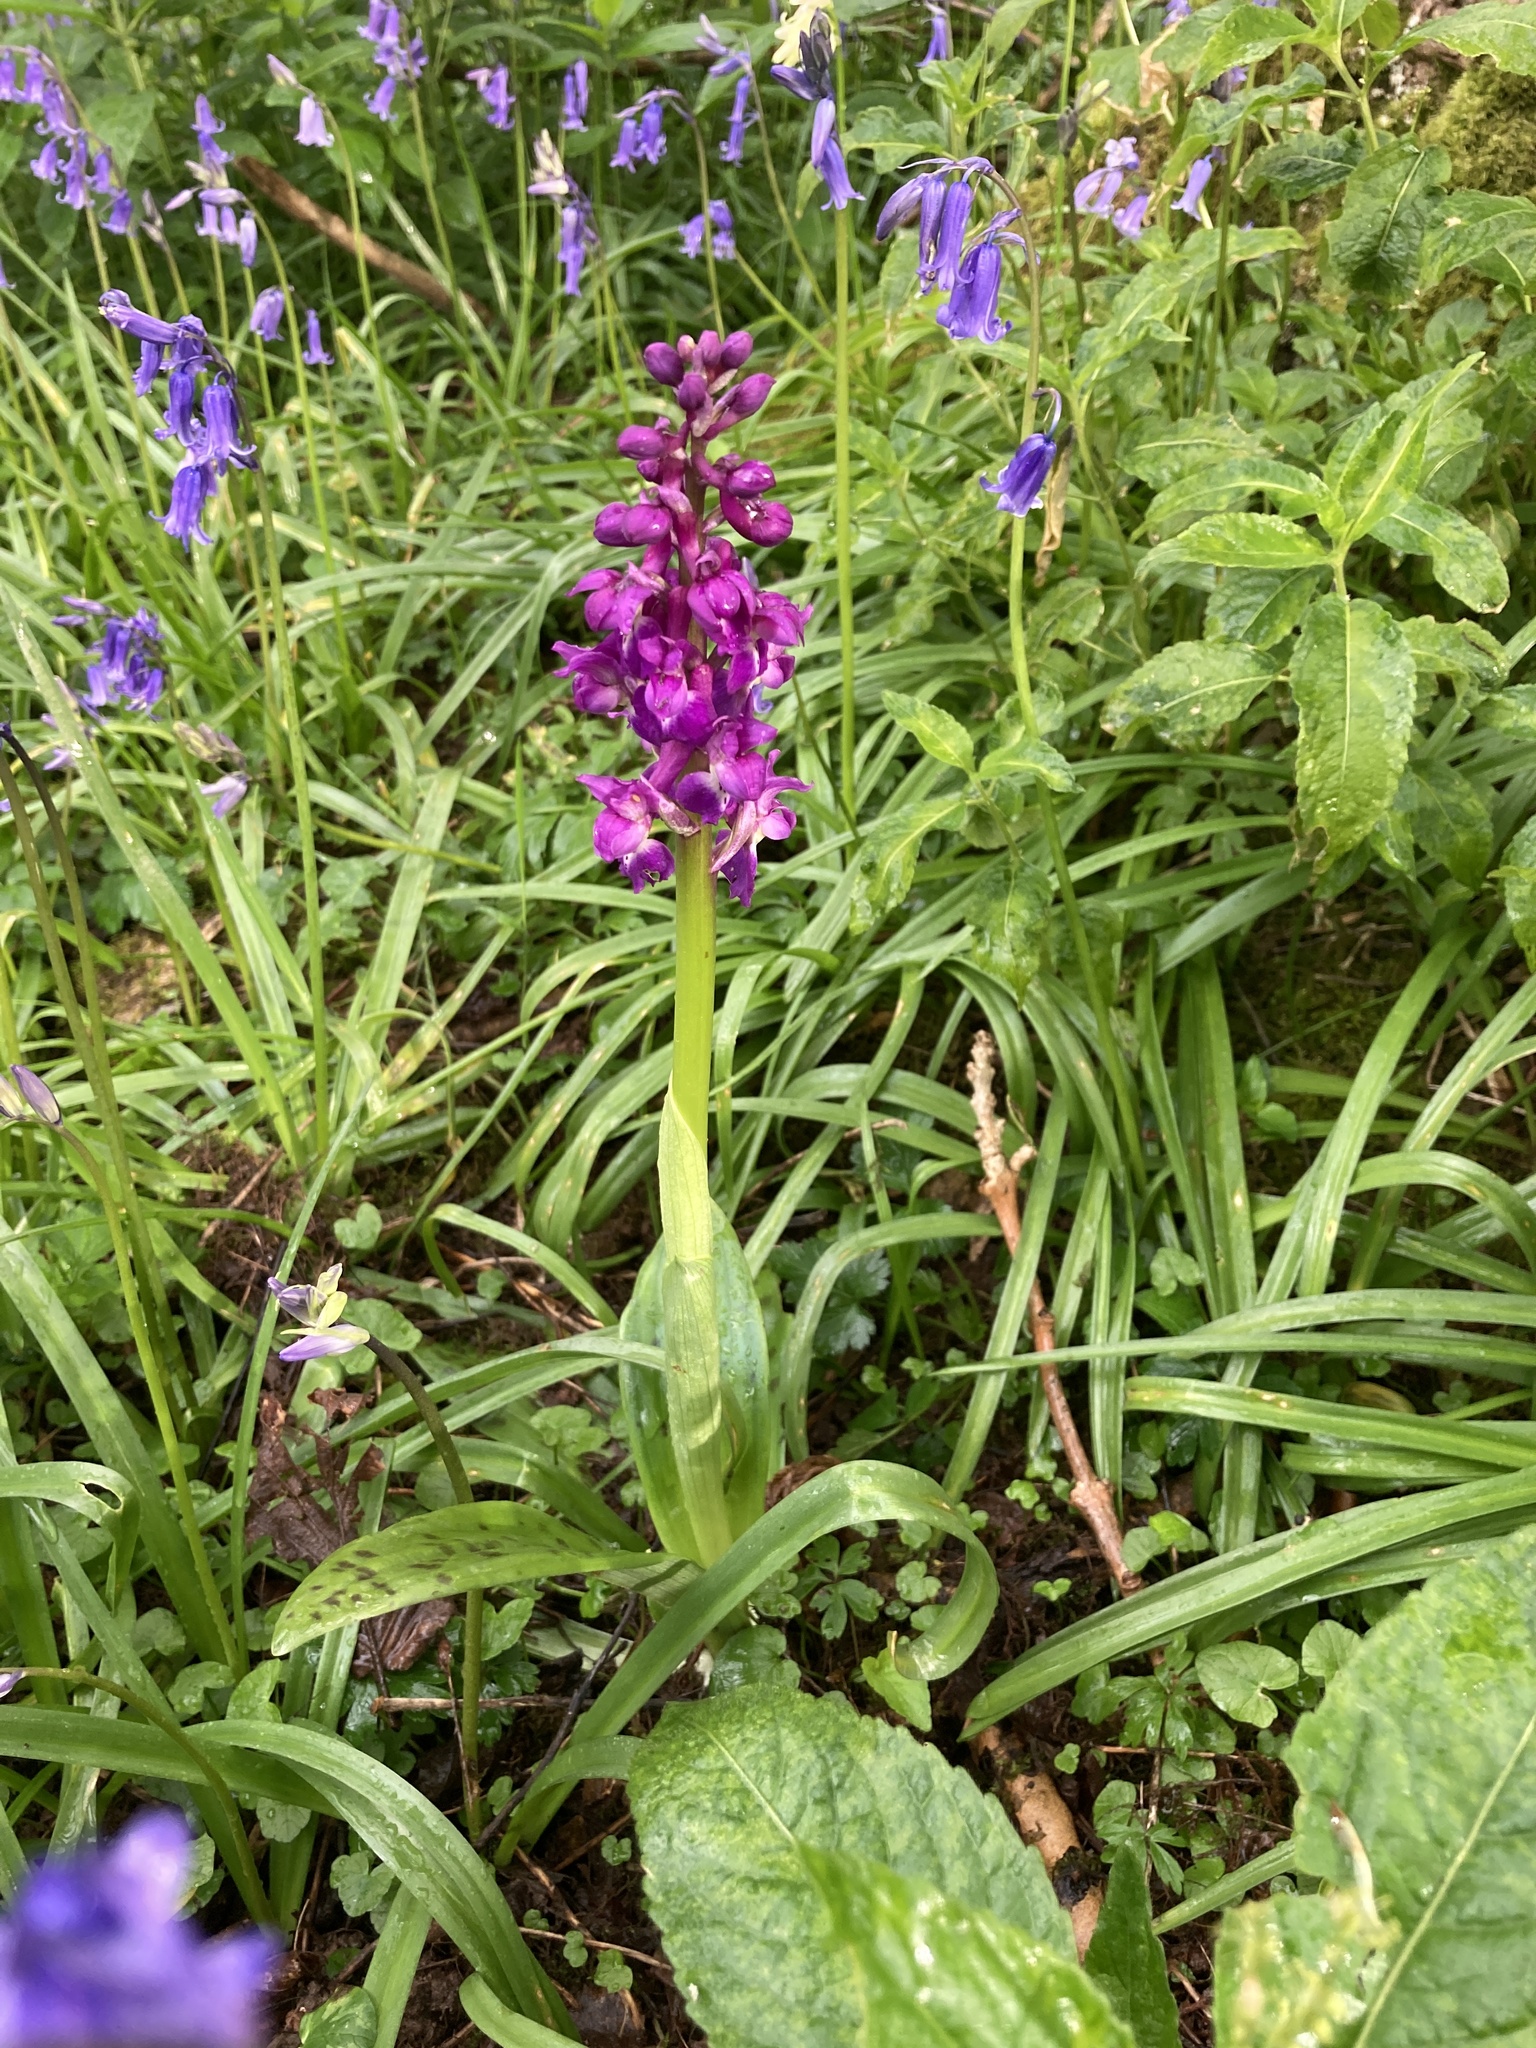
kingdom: Plantae
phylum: Tracheophyta
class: Liliopsida
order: Asparagales
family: Orchidaceae
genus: Orchis
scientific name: Orchis mascula
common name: Early-purple orchid
